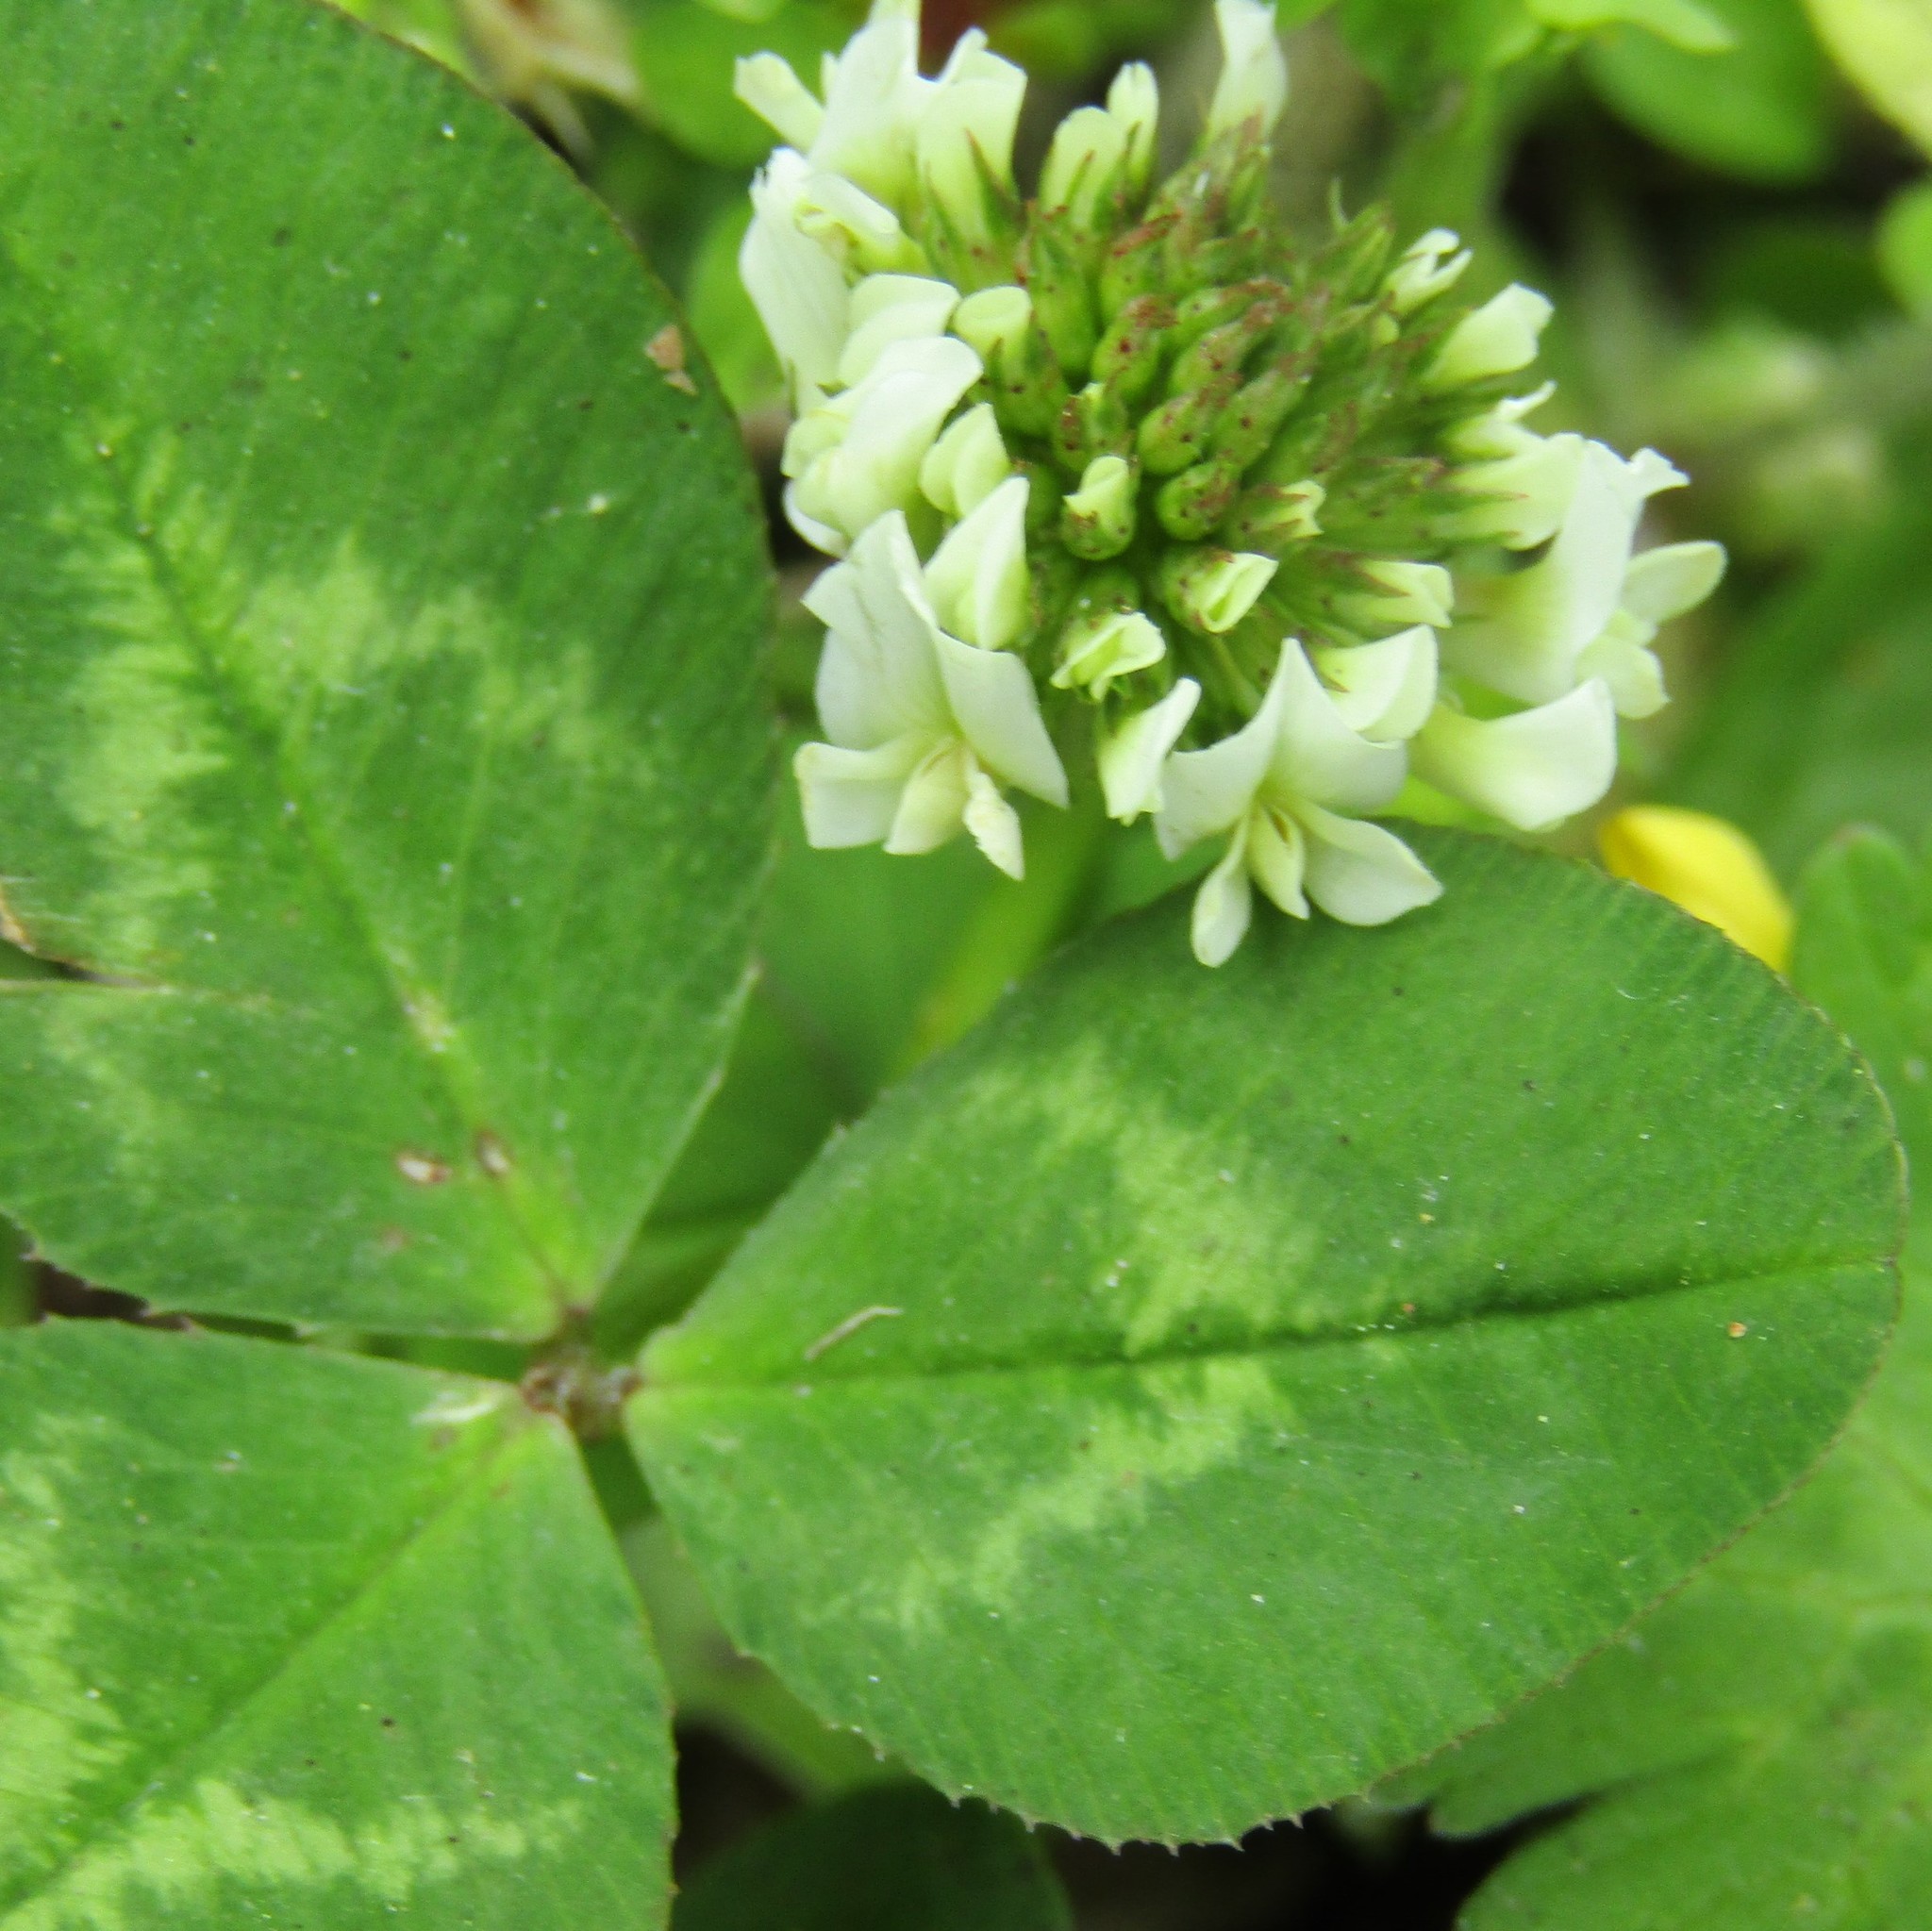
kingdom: Plantae
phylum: Tracheophyta
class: Magnoliopsida
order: Fabales
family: Fabaceae
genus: Trifolium
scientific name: Trifolium repens
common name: White clover
